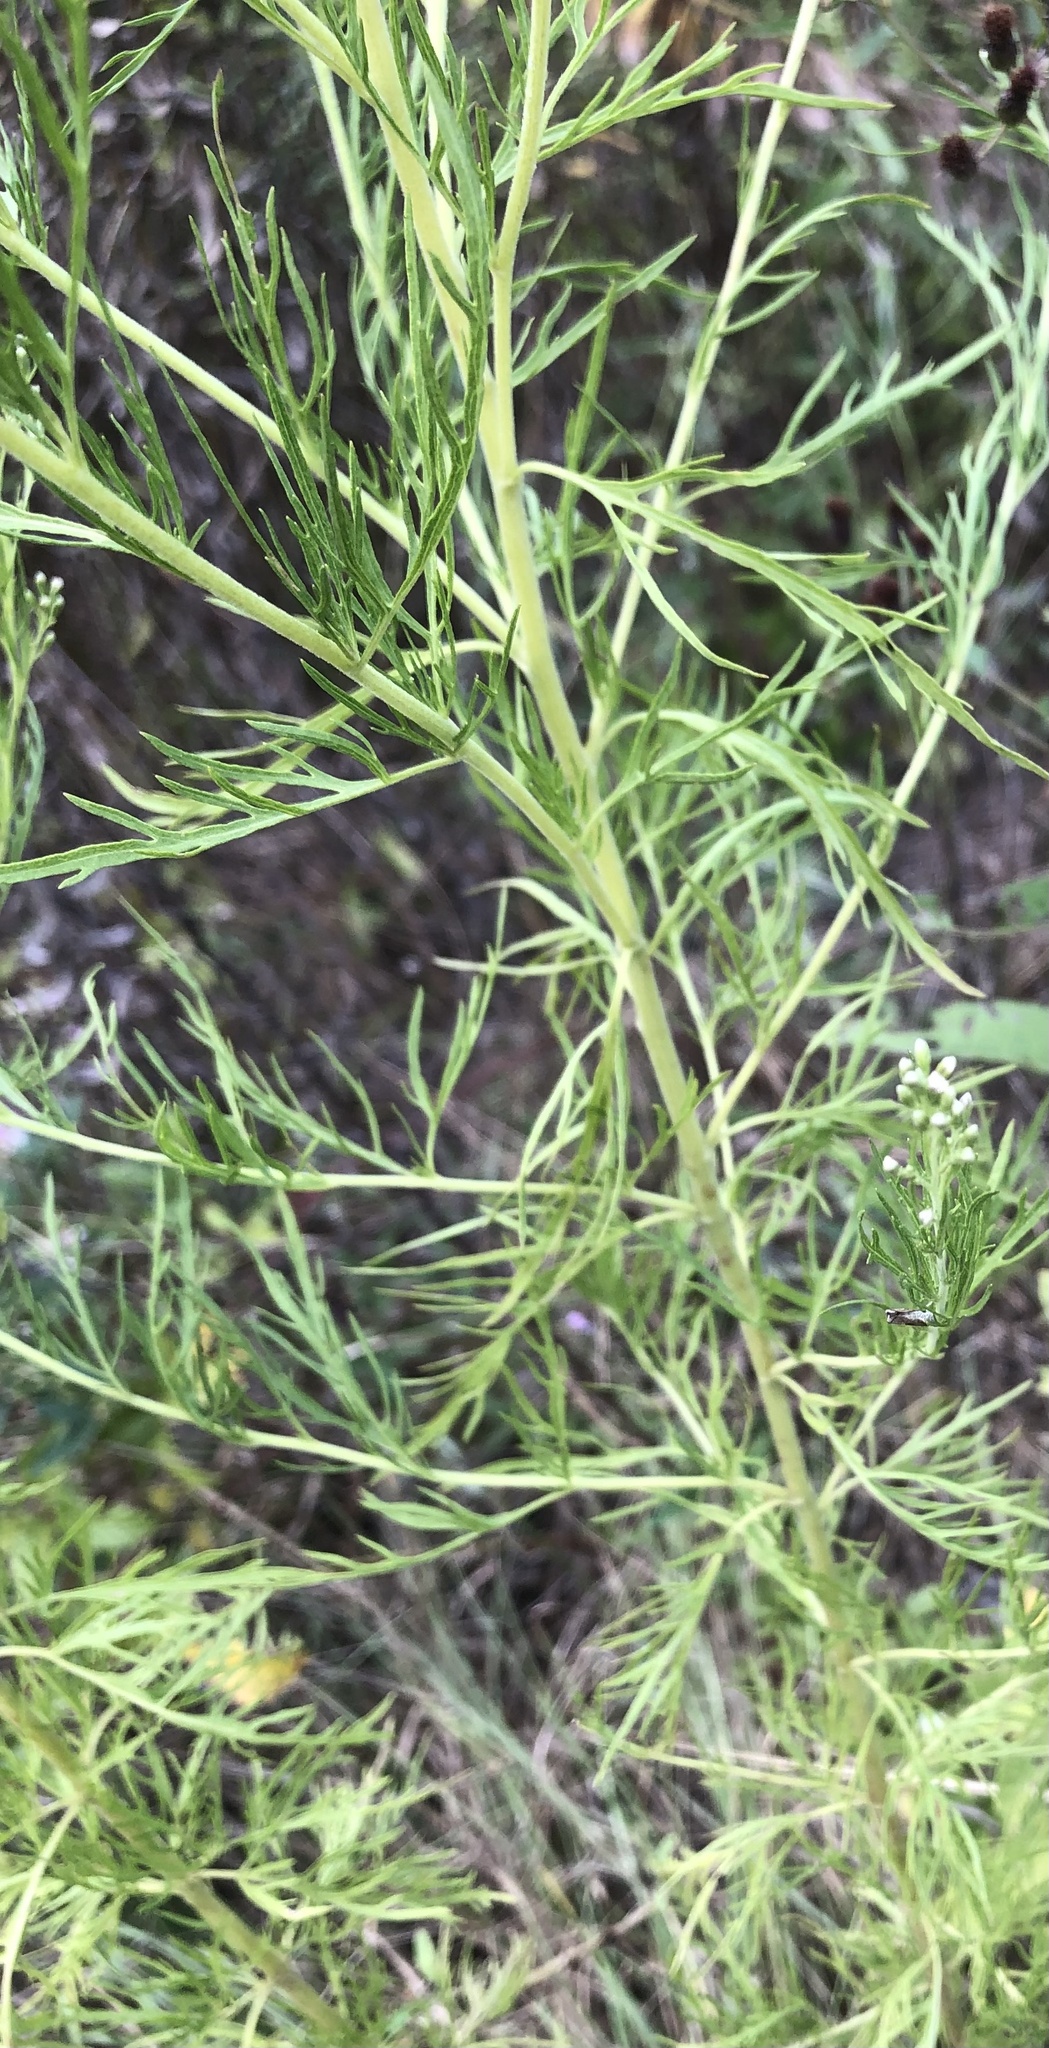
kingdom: Plantae
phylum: Tracheophyta
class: Magnoliopsida
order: Asterales
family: Asteraceae
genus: Eupatorium
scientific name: Eupatorium compositifolium
